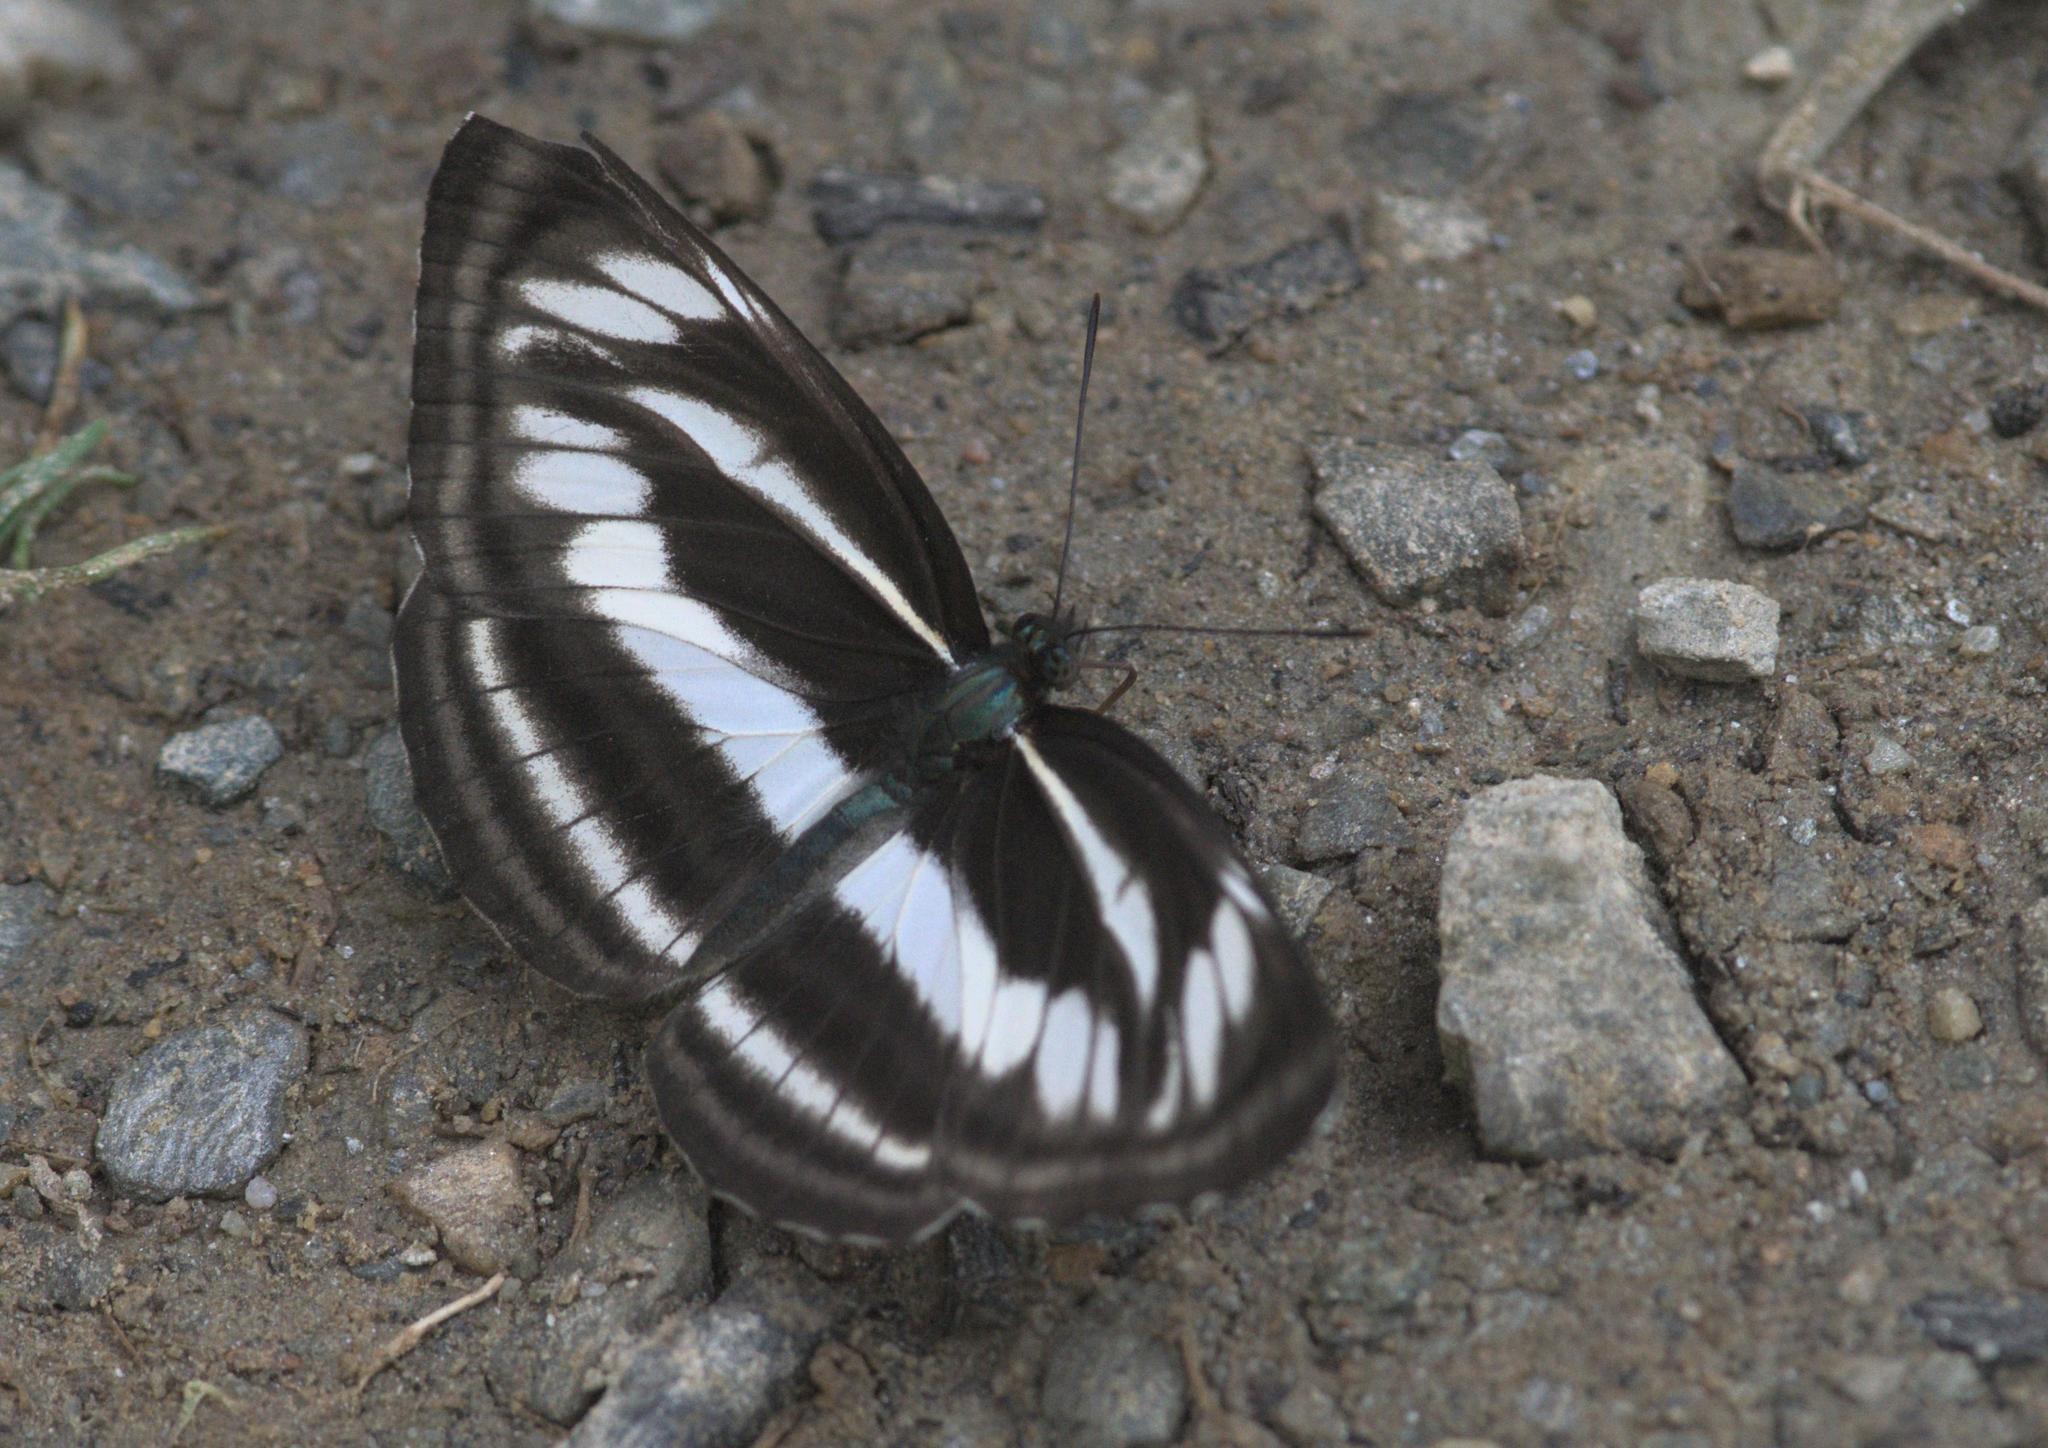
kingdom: Animalia
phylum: Arthropoda
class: Insecta
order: Lepidoptera
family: Nymphalidae
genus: Neptis
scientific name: Neptis sankara
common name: Broad-banded sailer
